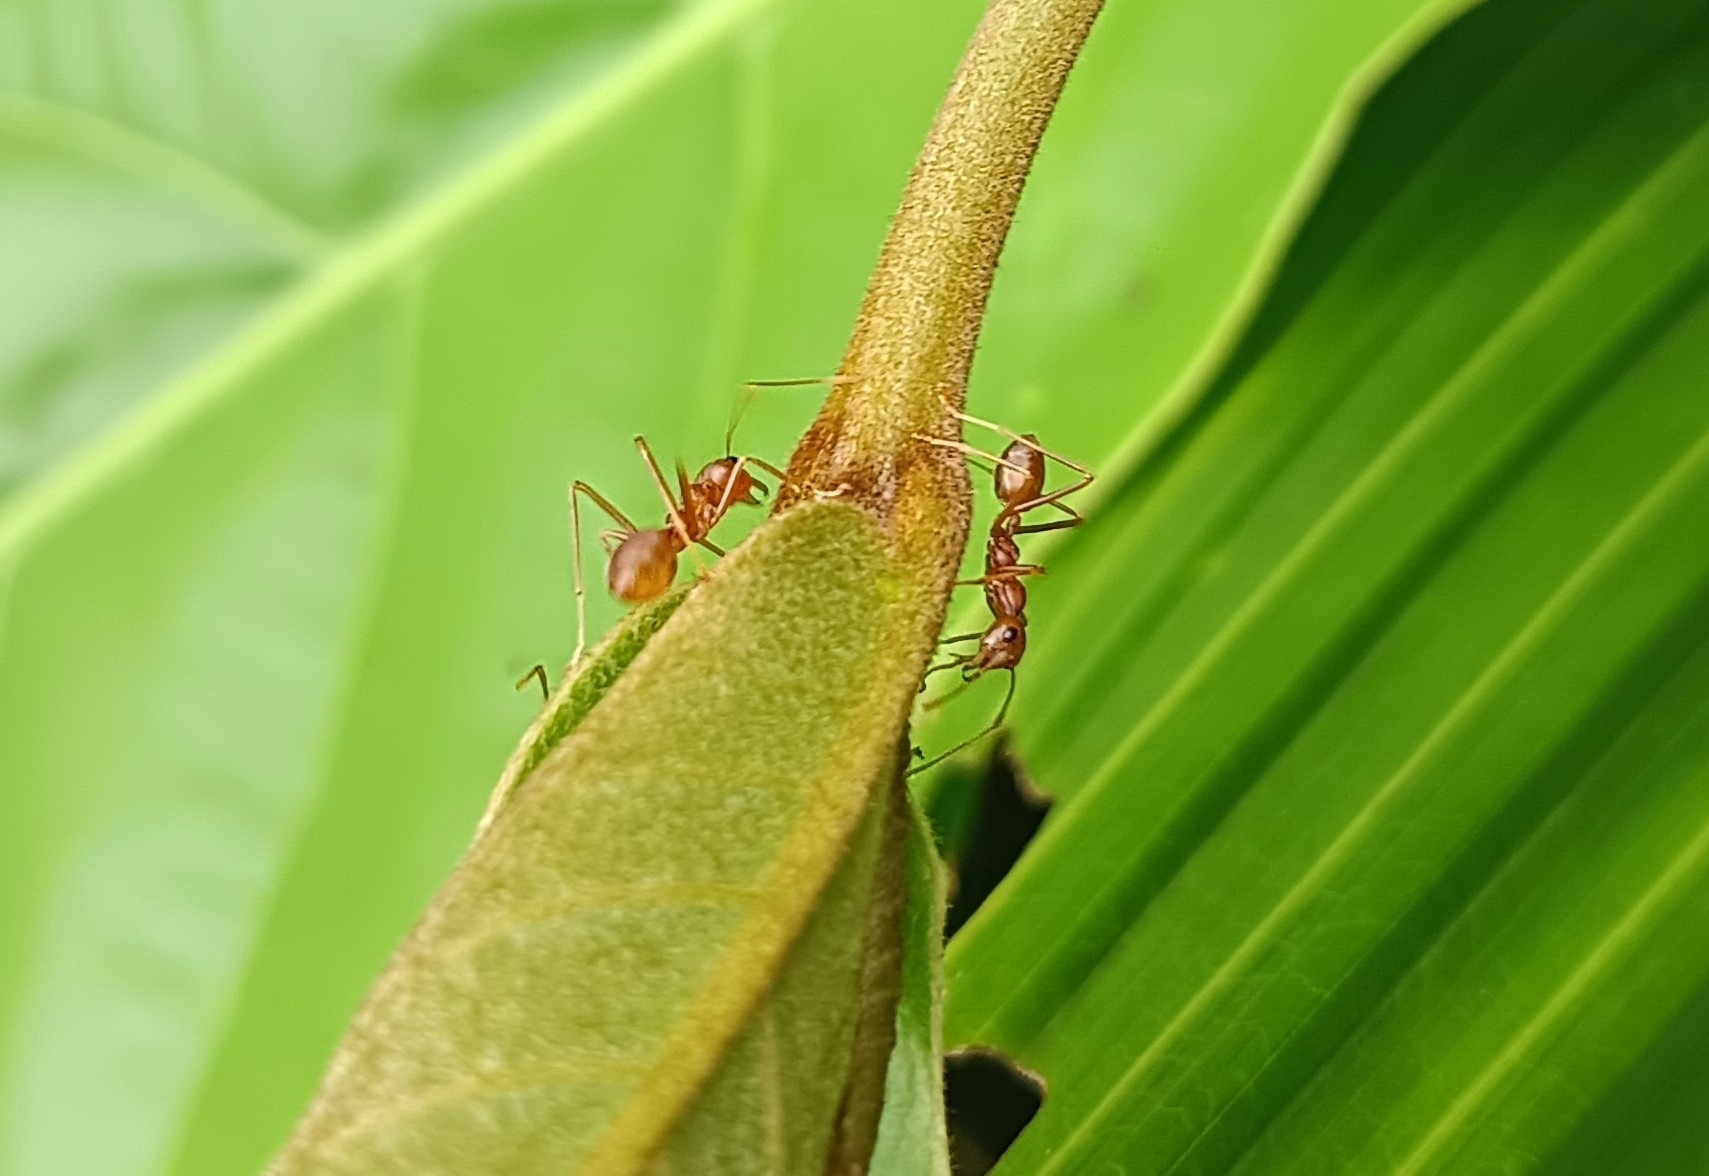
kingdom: Animalia
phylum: Arthropoda
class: Insecta
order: Hymenoptera
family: Formicidae
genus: Oecophylla
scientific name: Oecophylla smaragdina
